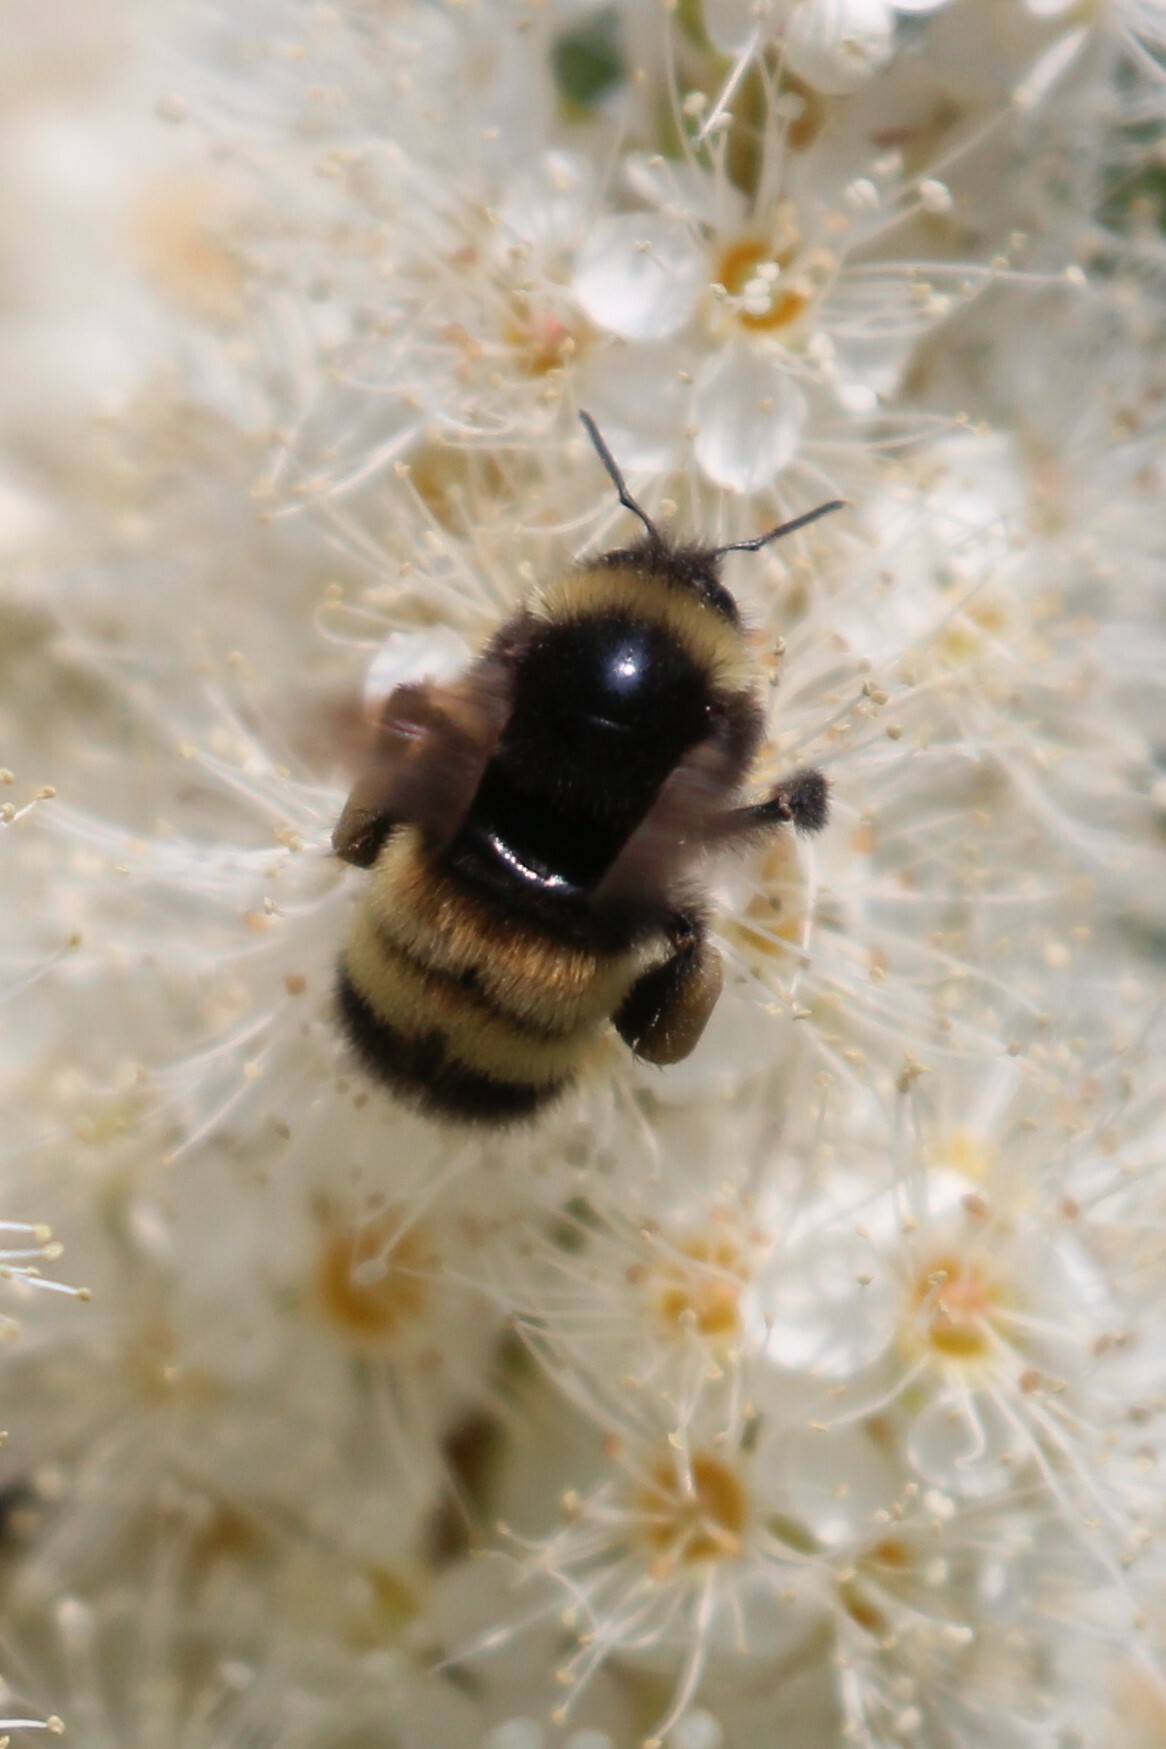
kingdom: Animalia
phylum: Arthropoda
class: Insecta
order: Hymenoptera
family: Apidae
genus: Bombus
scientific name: Bombus terricola
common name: Yellow-banded bumble bee
